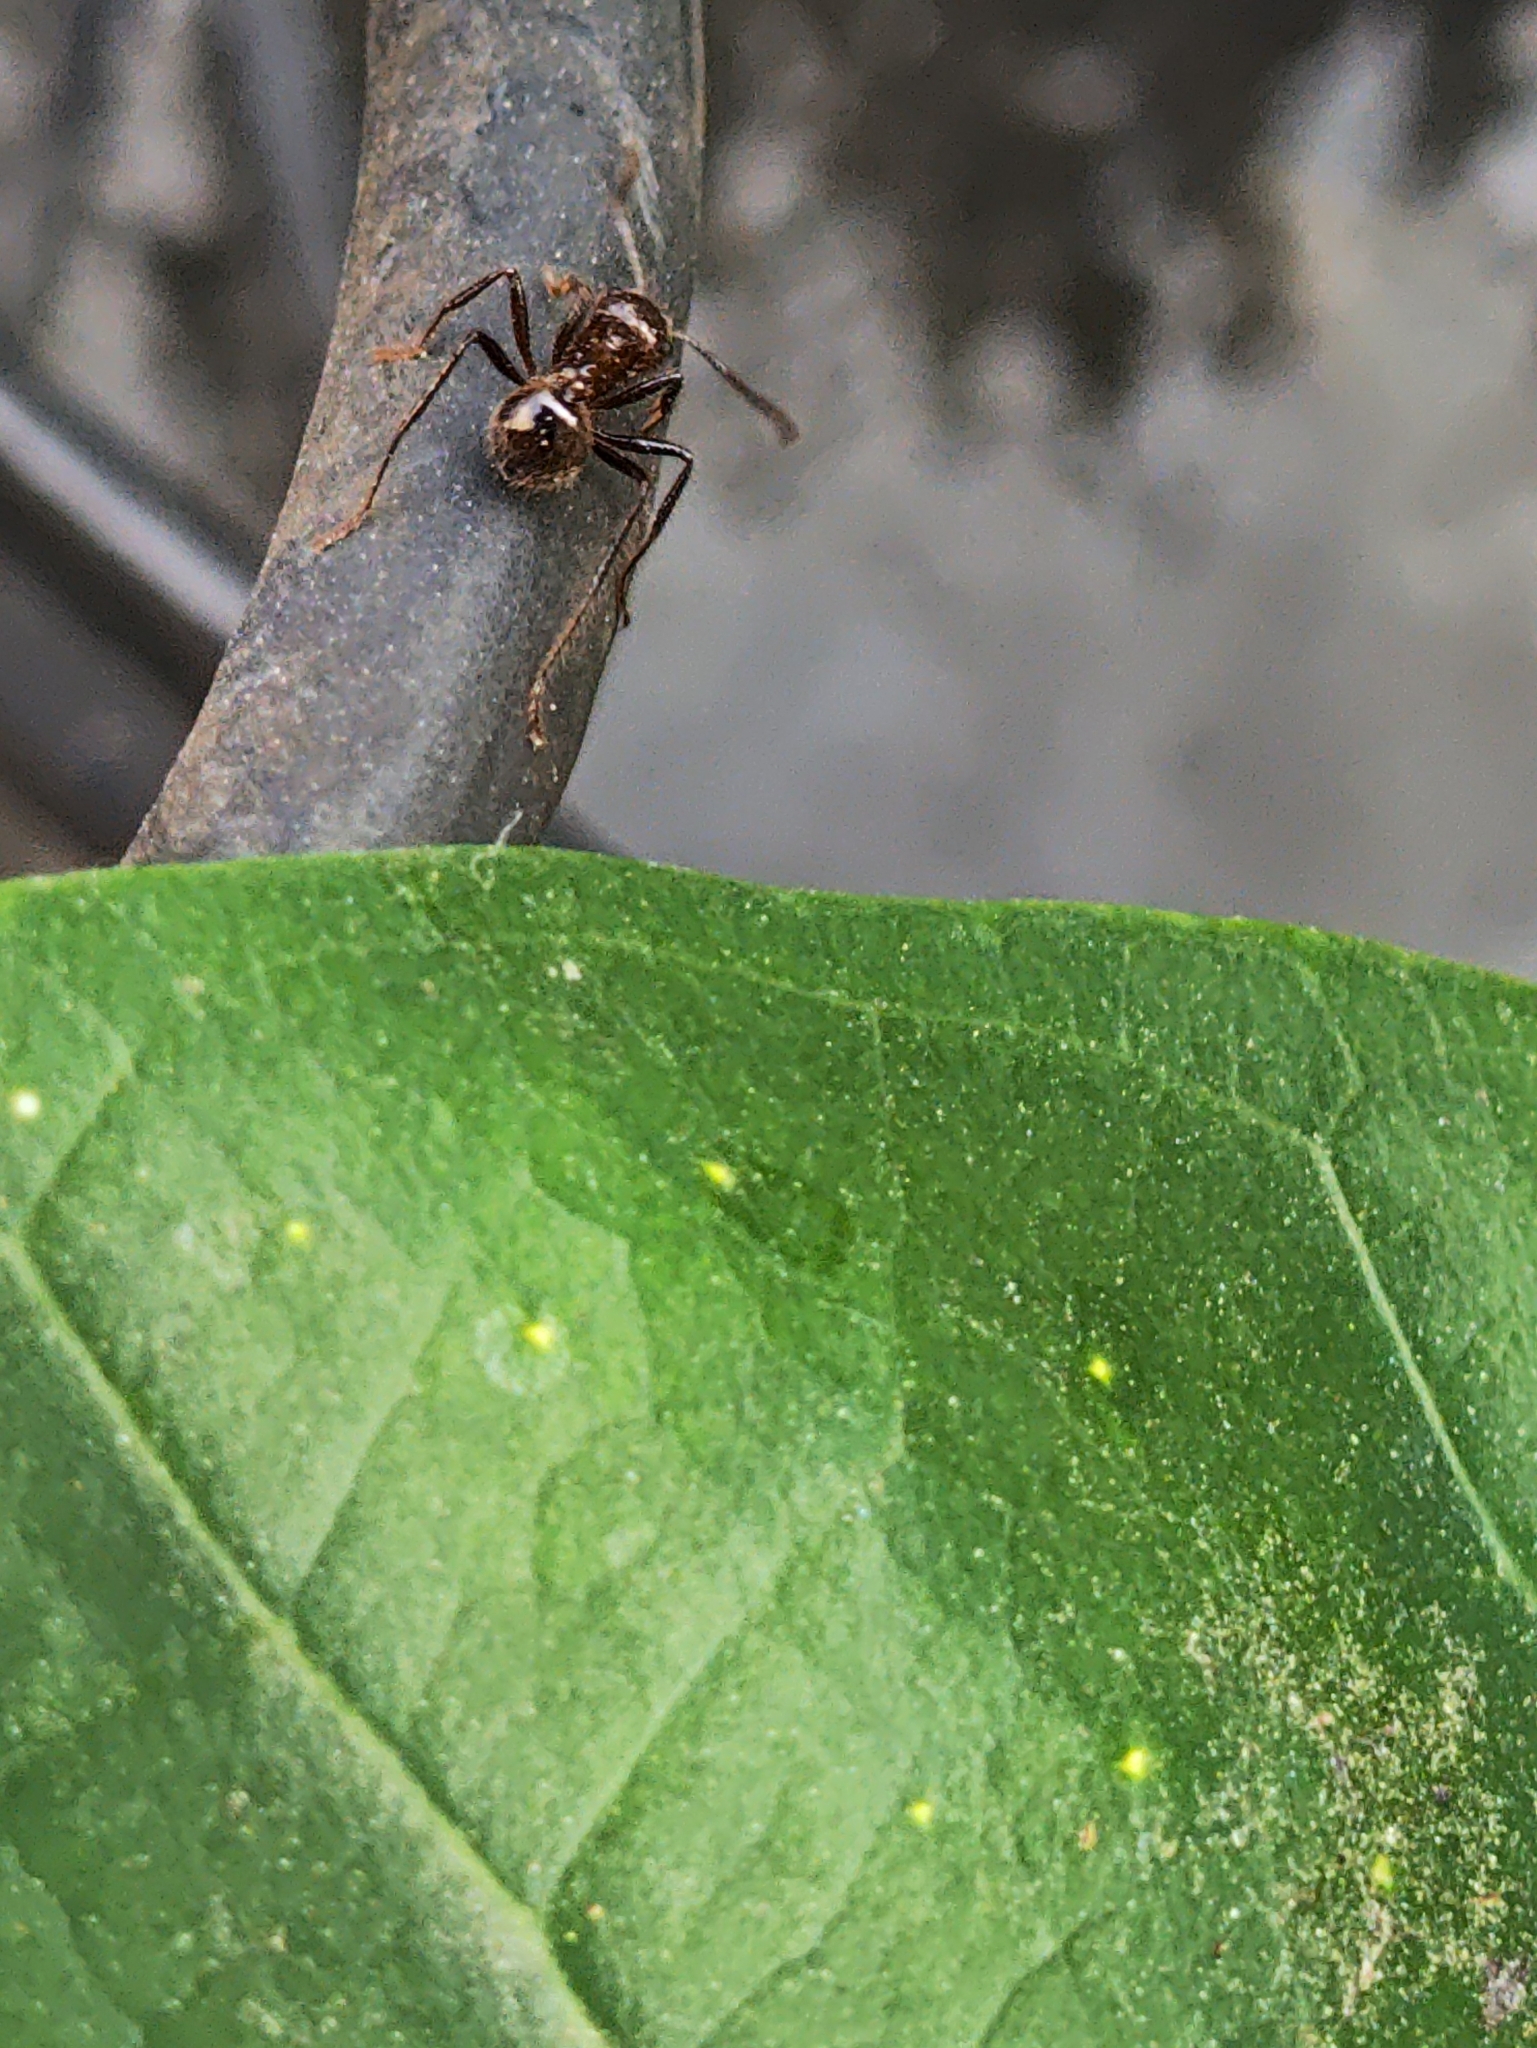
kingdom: Animalia
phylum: Arthropoda
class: Insecta
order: Hymenoptera
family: Formicidae
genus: Myrmicaria
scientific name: Myrmicaria brunnea
